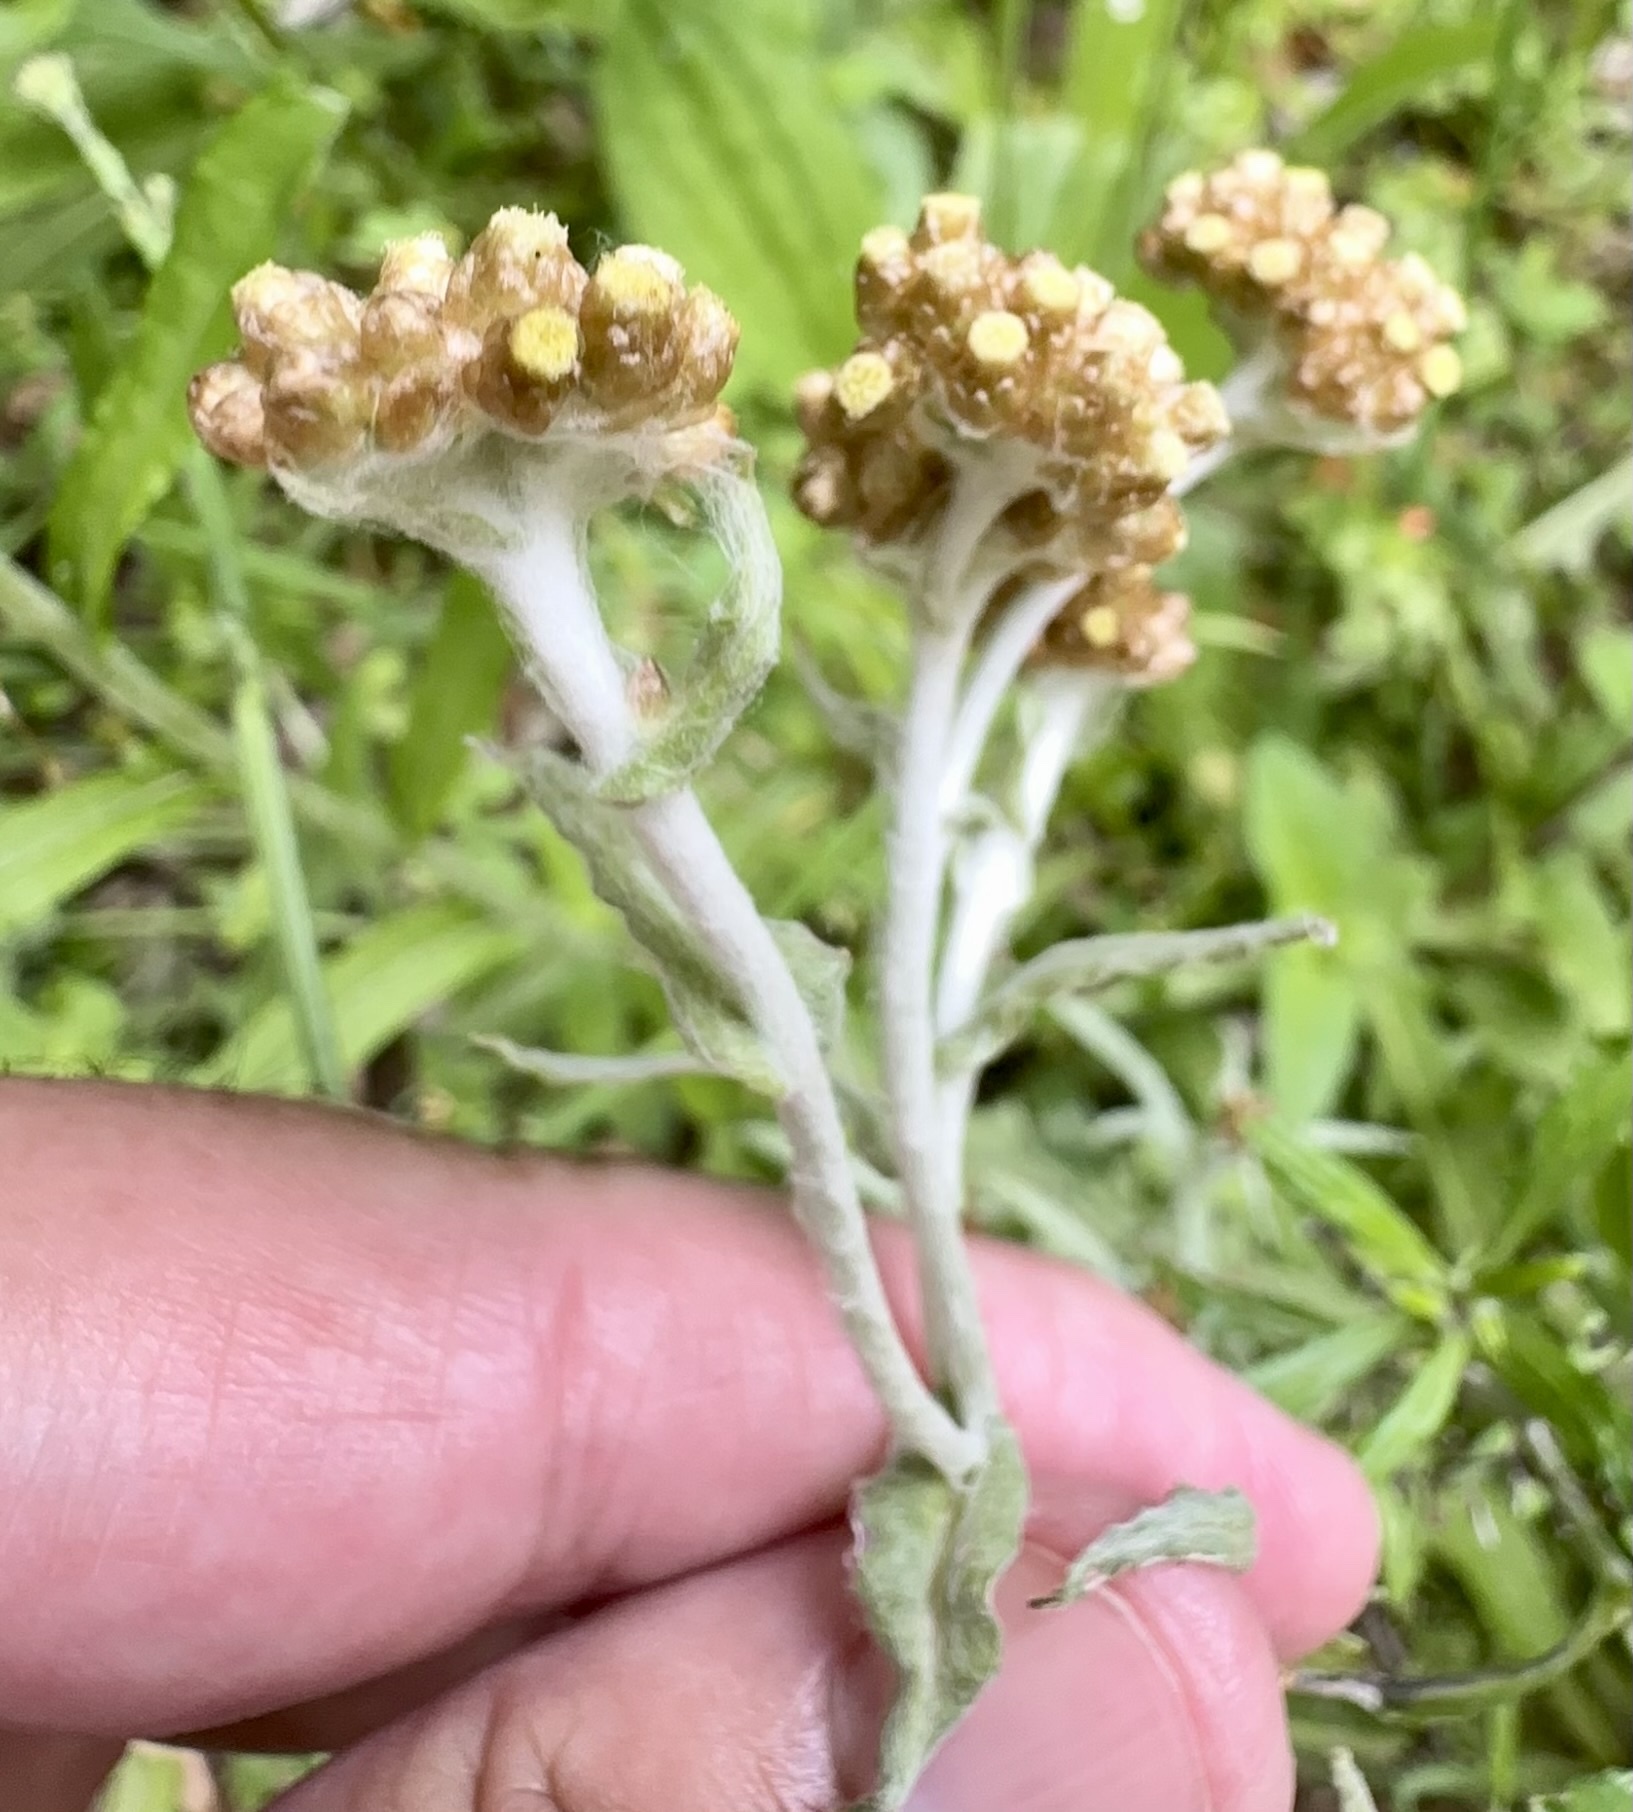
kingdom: Plantae
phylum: Tracheophyta
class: Magnoliopsida
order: Asterales
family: Asteraceae
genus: Pseudognaphalium
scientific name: Pseudognaphalium
